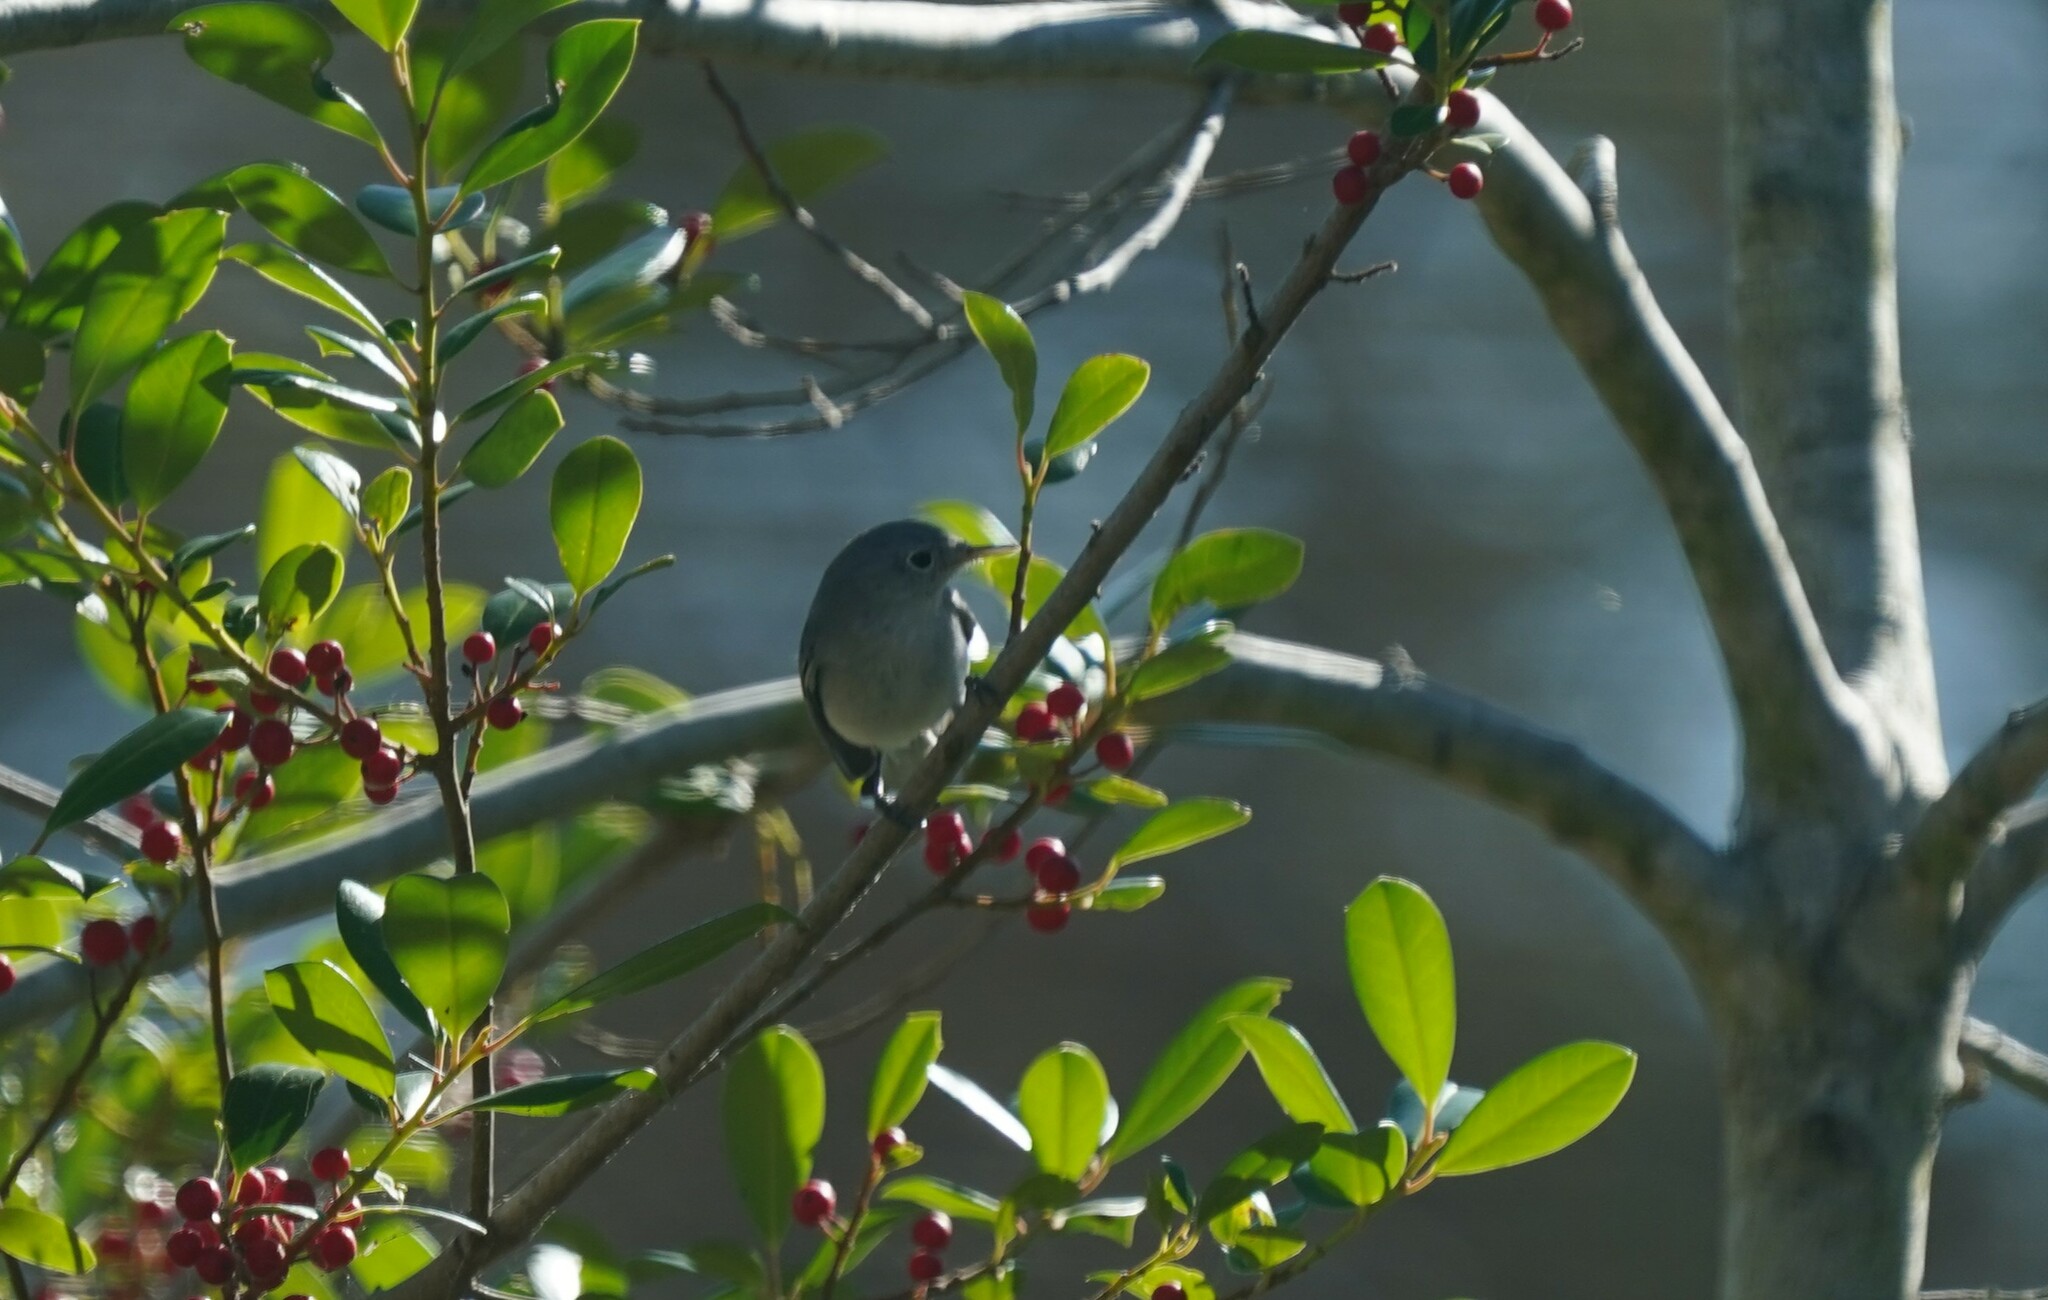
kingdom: Animalia
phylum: Chordata
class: Aves
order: Passeriformes
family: Polioptilidae
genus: Polioptila
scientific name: Polioptila caerulea
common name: Blue-gray gnatcatcher
